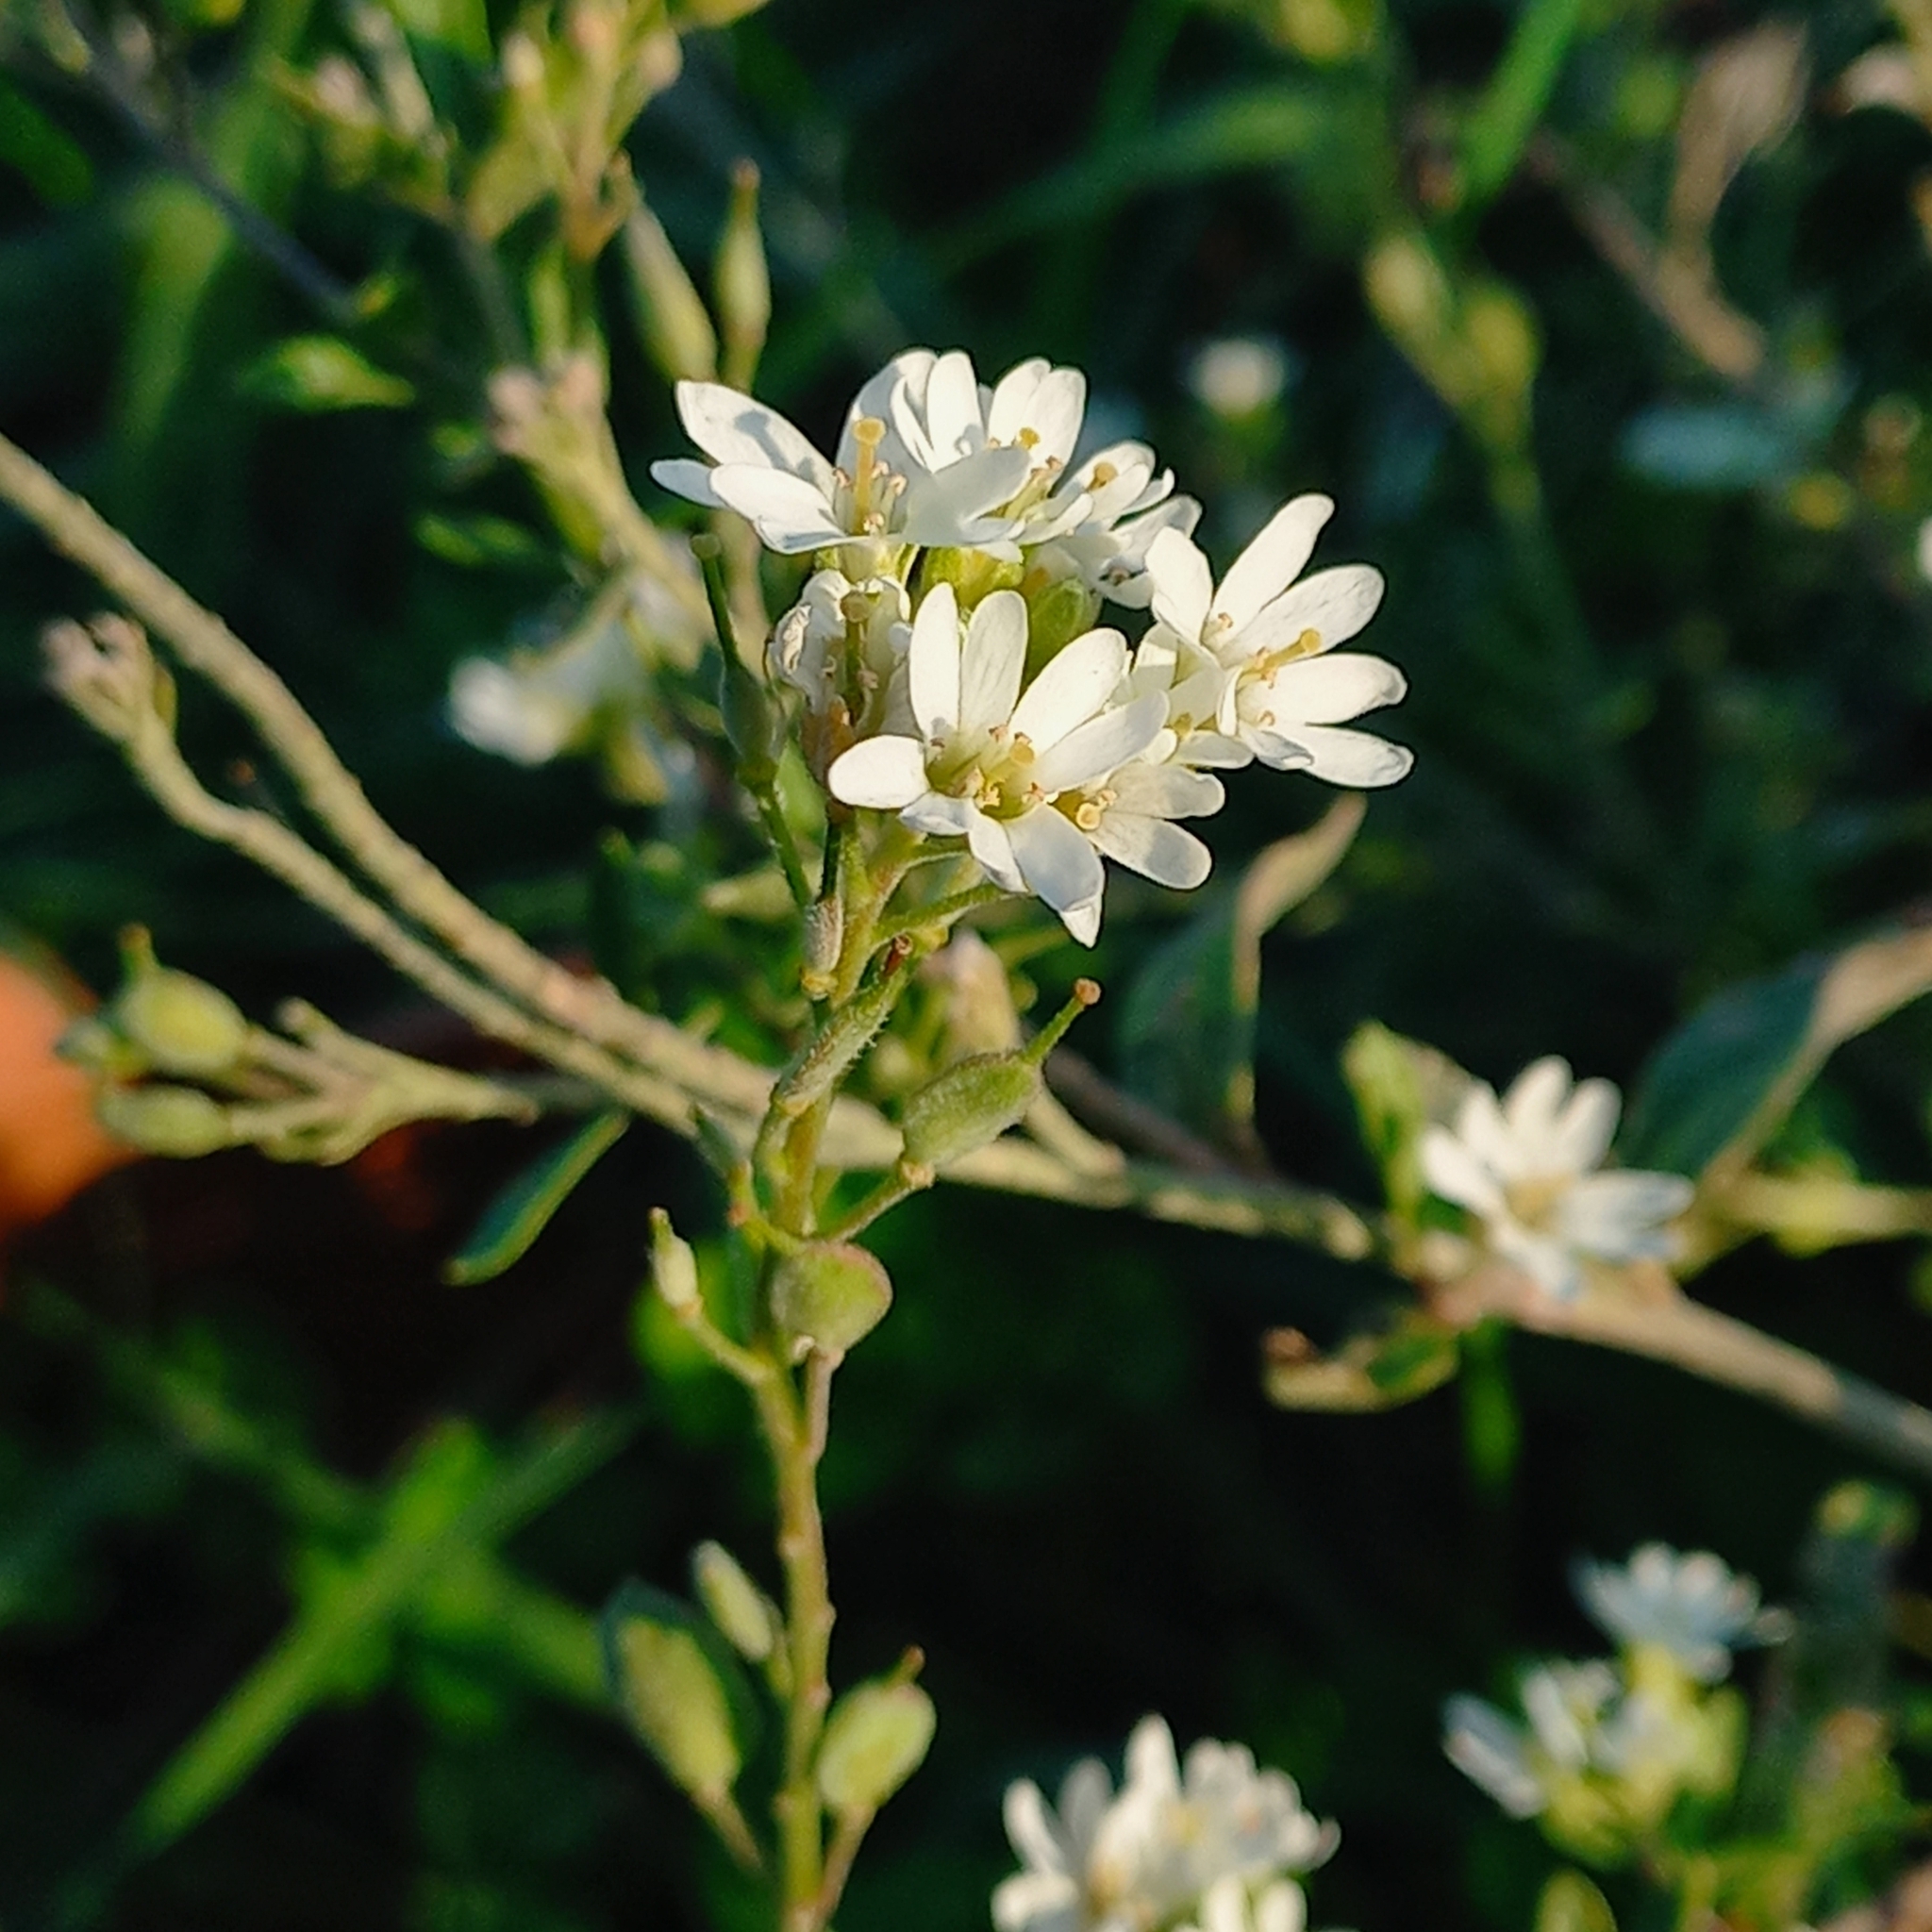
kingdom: Plantae
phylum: Tracheophyta
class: Magnoliopsida
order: Brassicales
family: Brassicaceae
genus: Berteroa
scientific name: Berteroa incana
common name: Hoary alison
